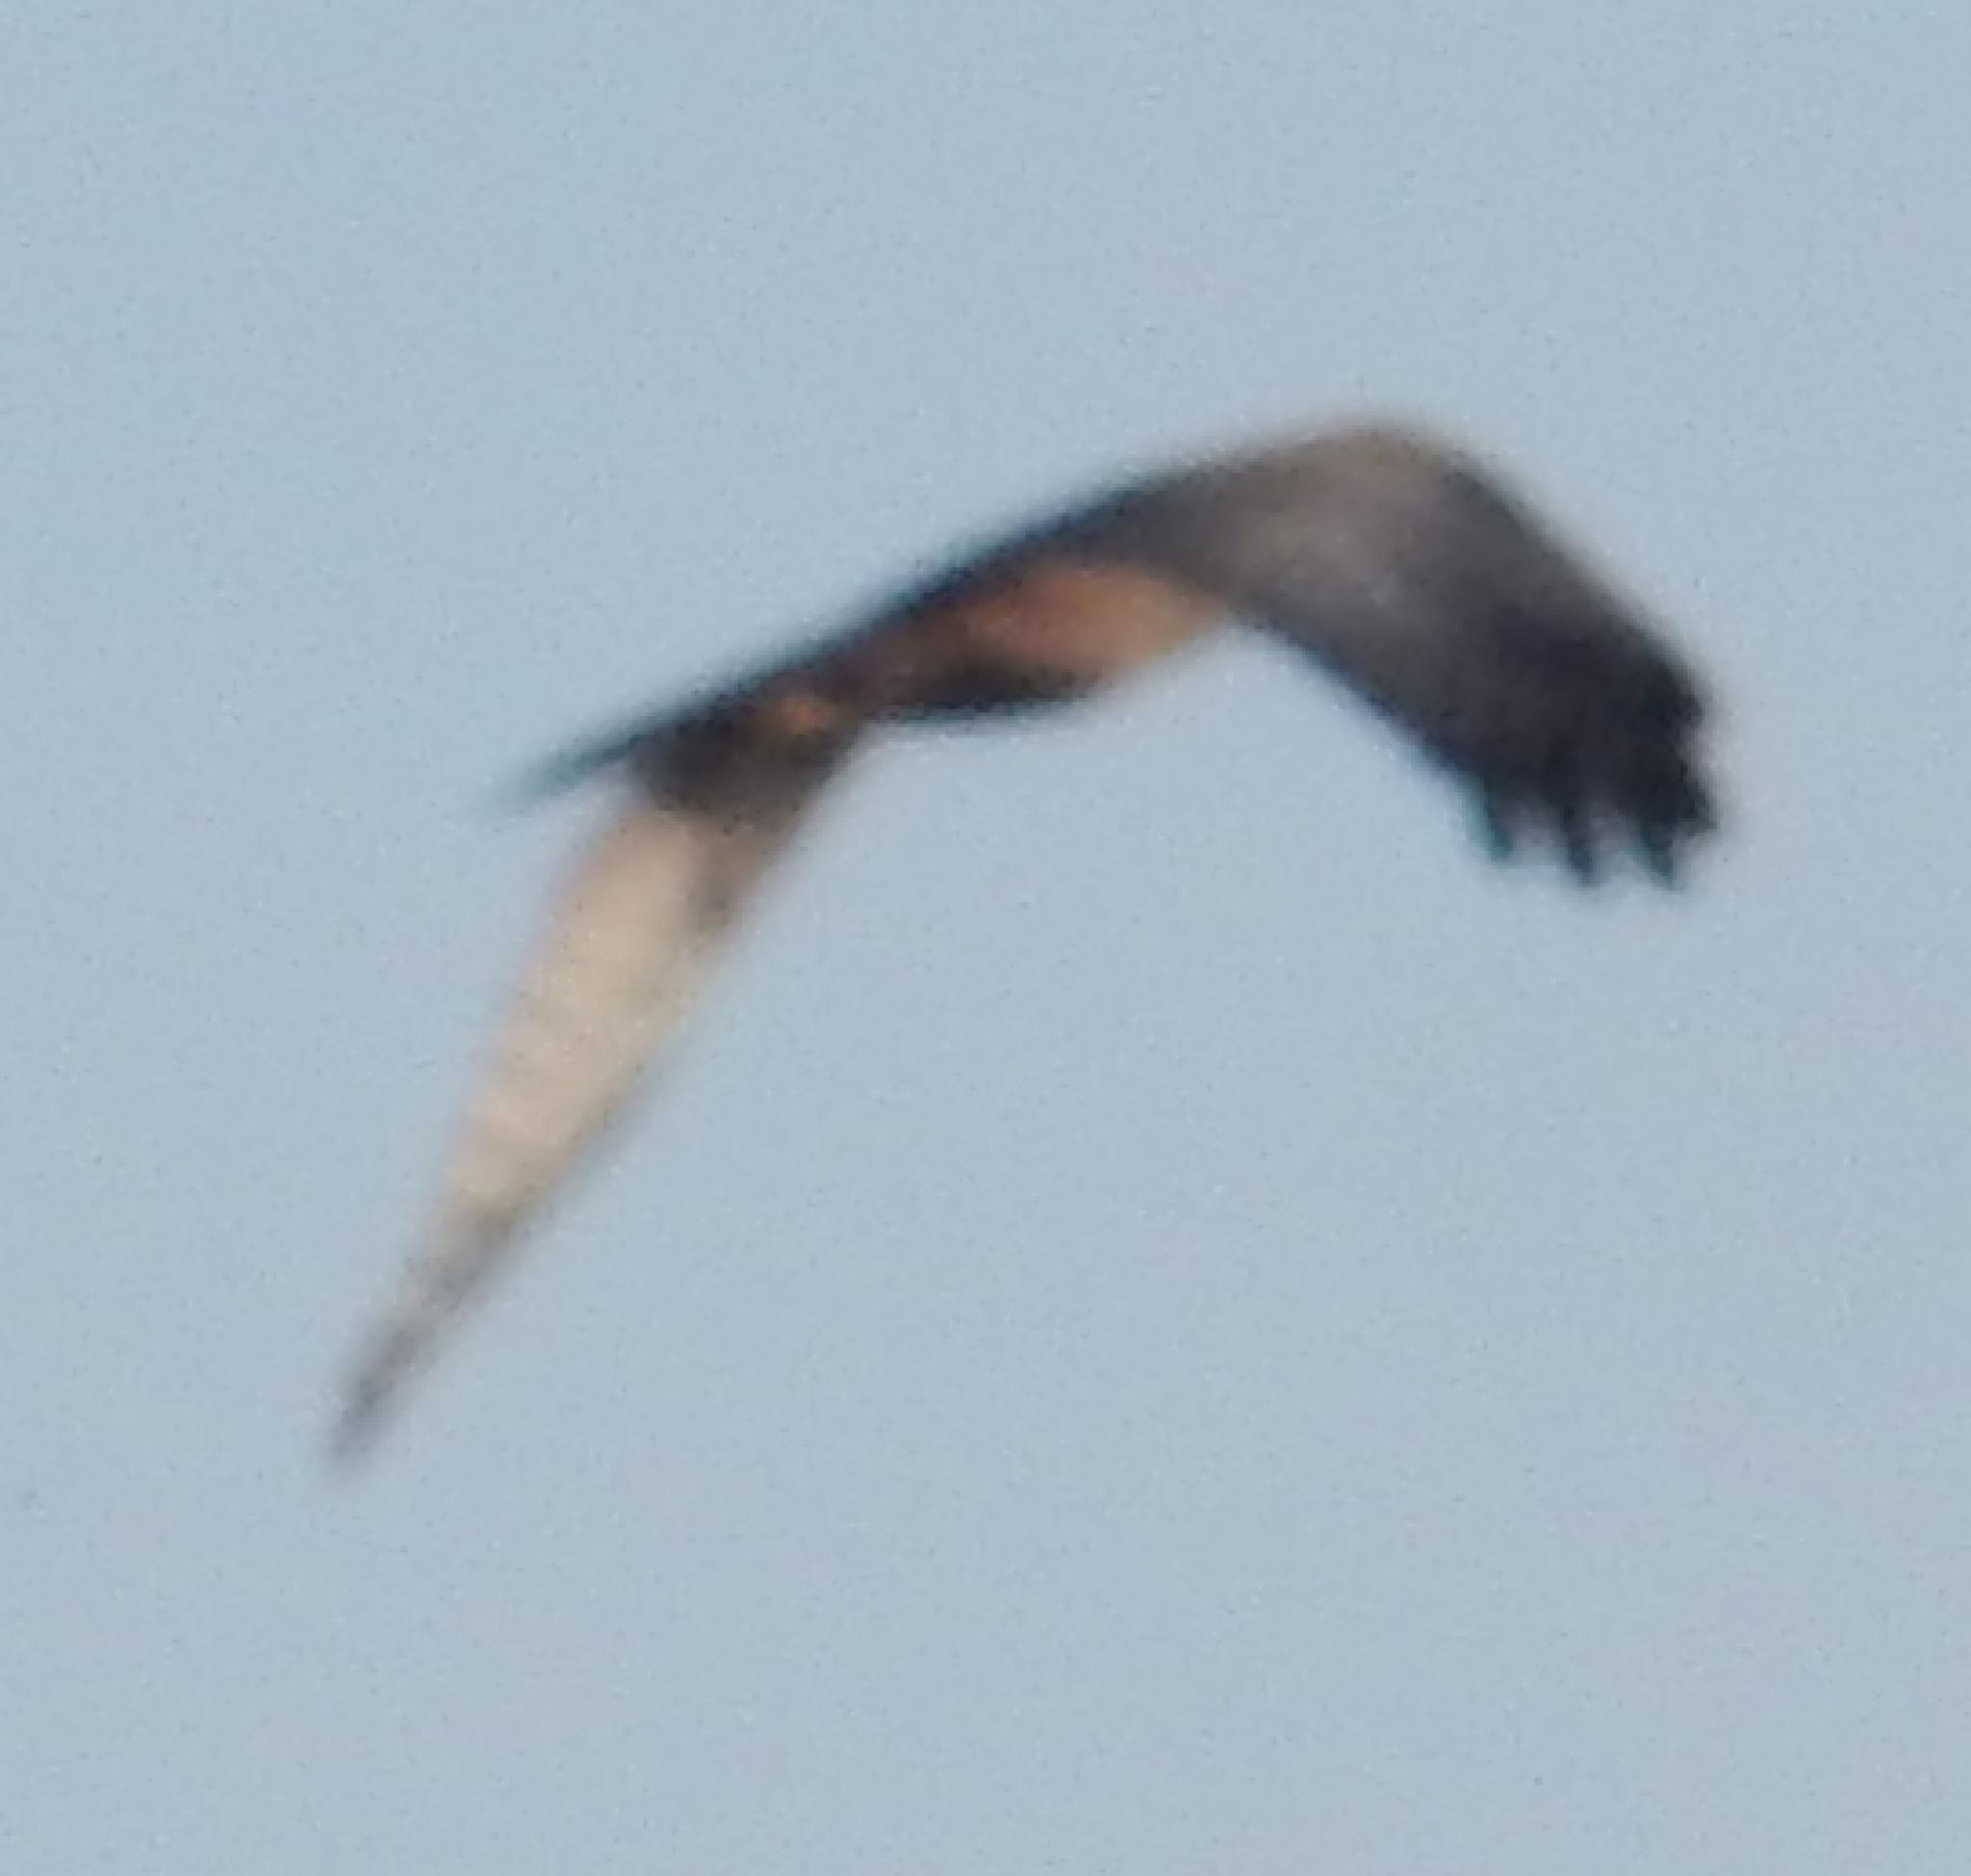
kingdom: Animalia
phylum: Chordata
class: Aves
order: Accipitriformes
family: Accipitridae
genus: Circus
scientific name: Circus ranivorus
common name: African marsh-harrier
